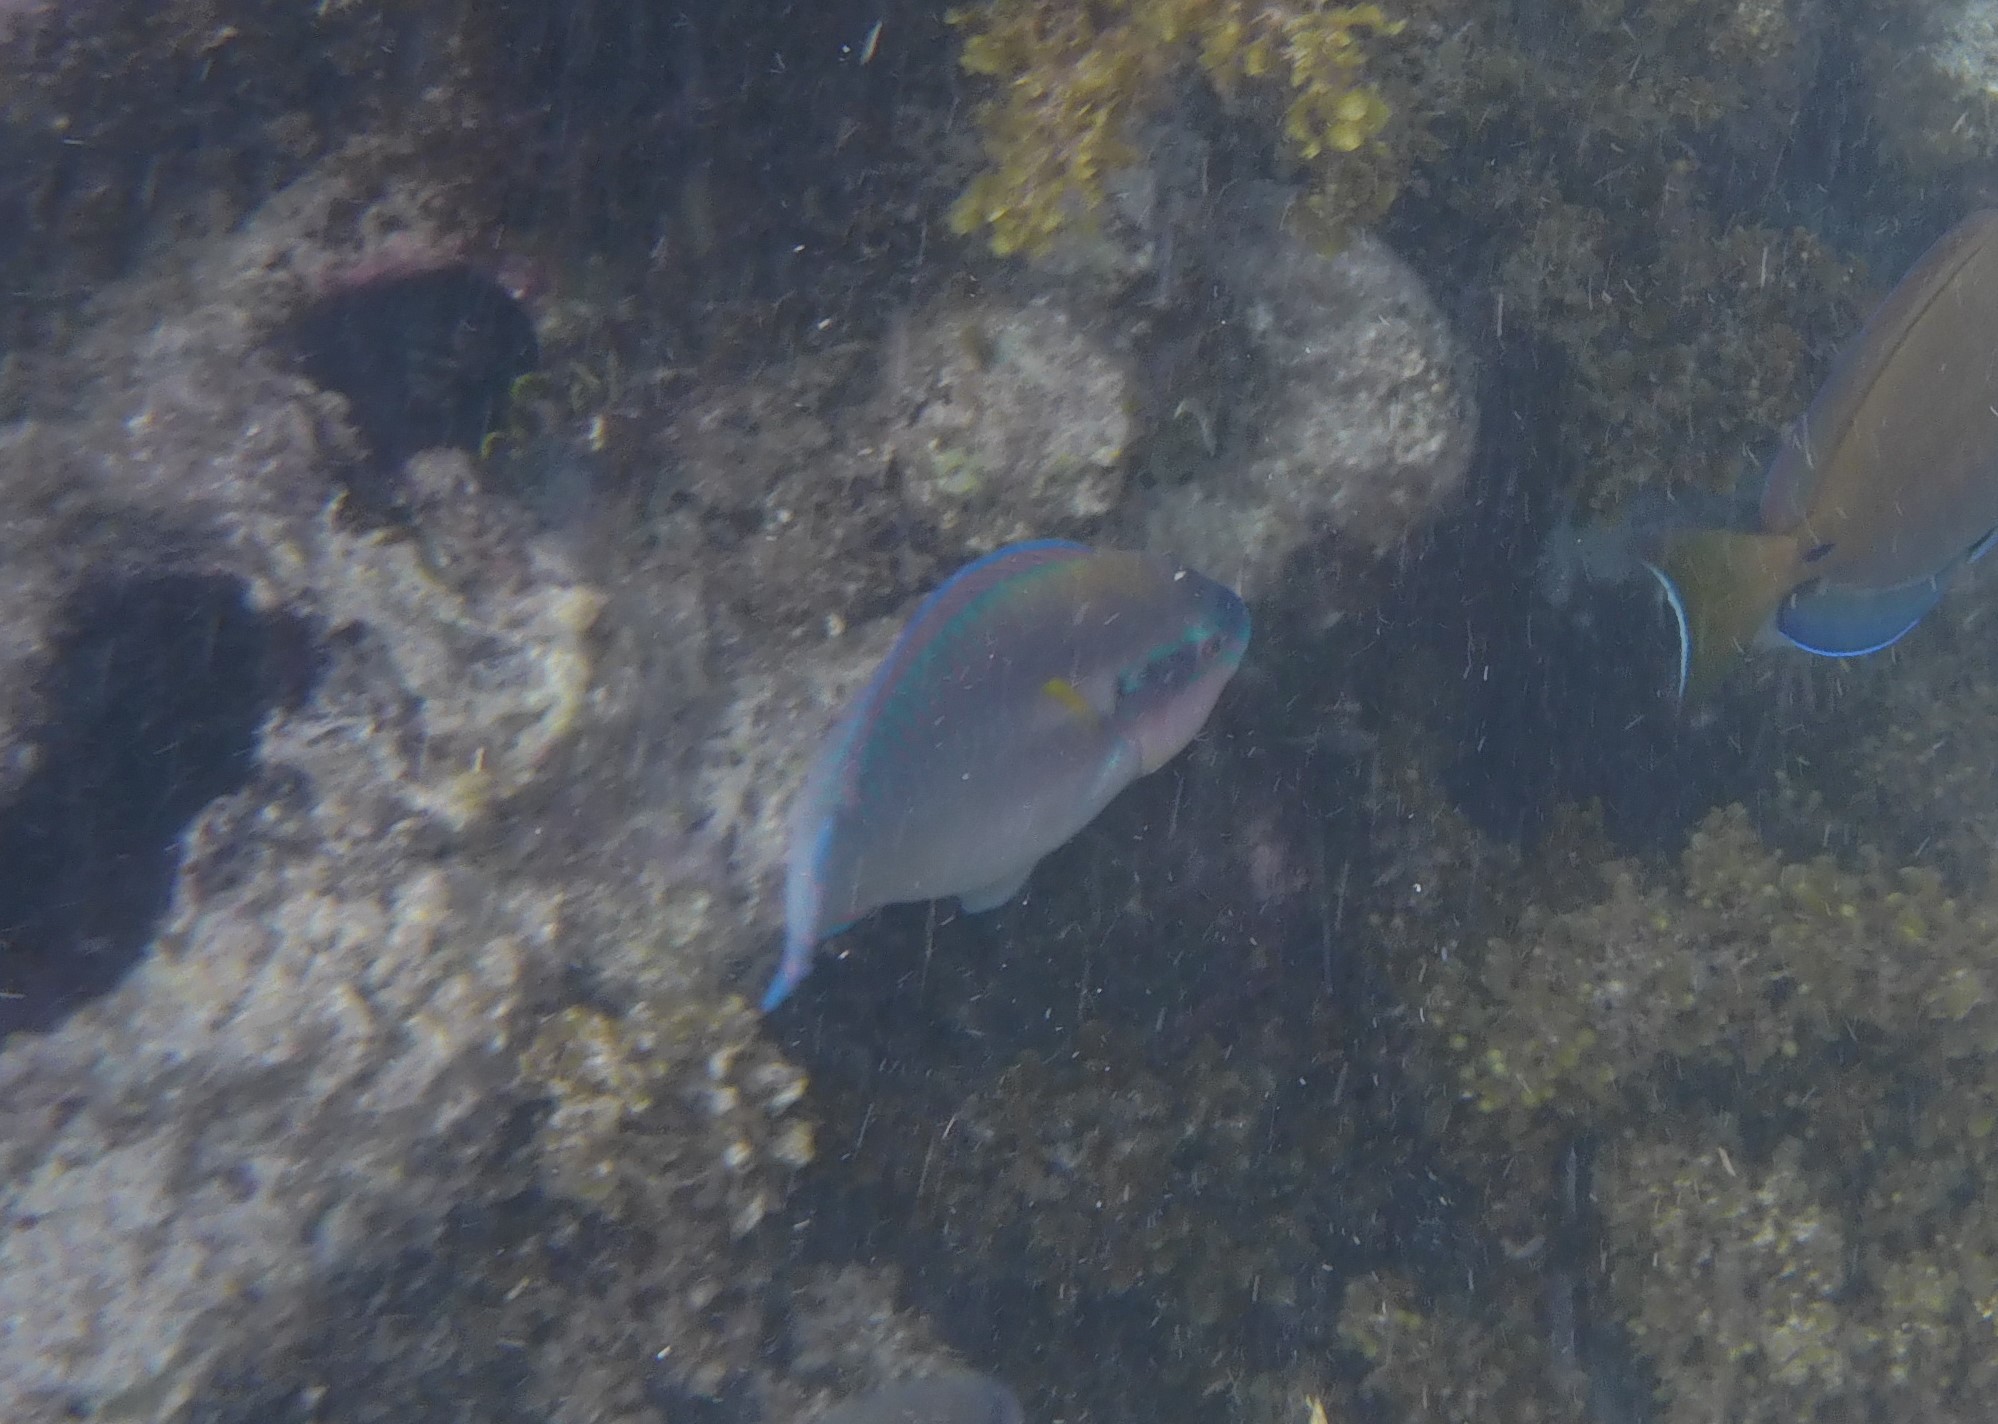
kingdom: Animalia
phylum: Chordata
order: Perciformes
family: Scaridae
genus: Scarus
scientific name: Scarus iseri
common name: Striped parrotfish
